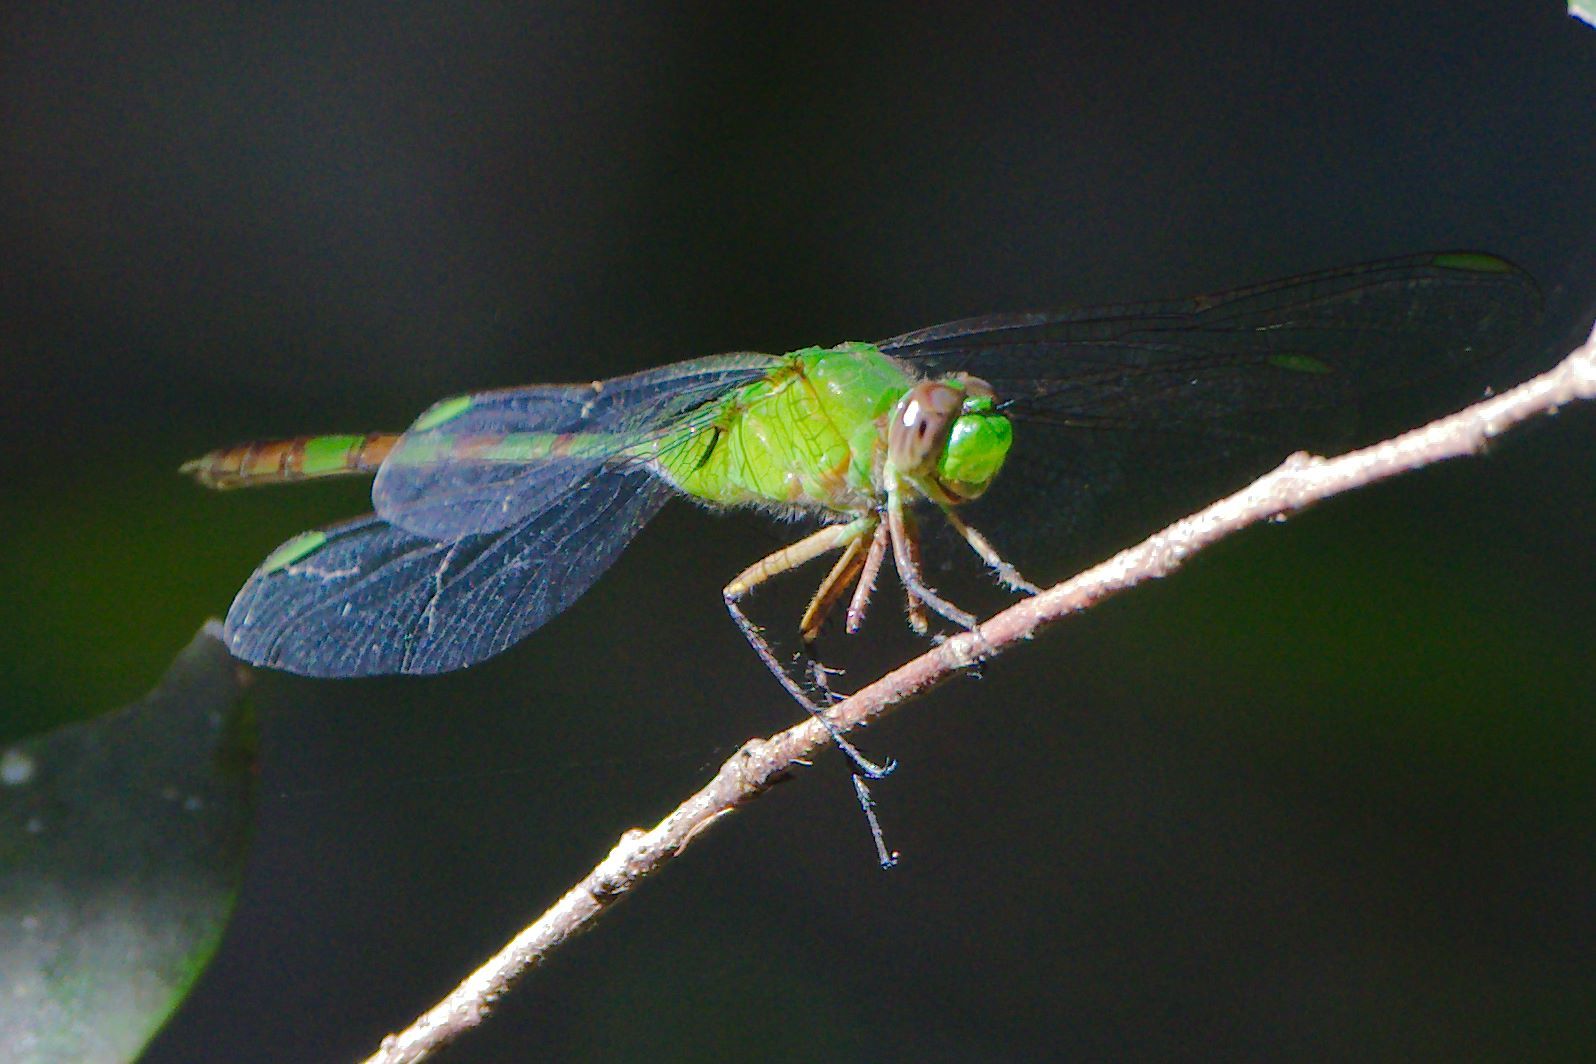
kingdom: Animalia
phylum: Arthropoda
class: Insecta
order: Odonata
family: Libellulidae
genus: Erythemis
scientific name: Erythemis vesiculosa
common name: Great pondhawk
